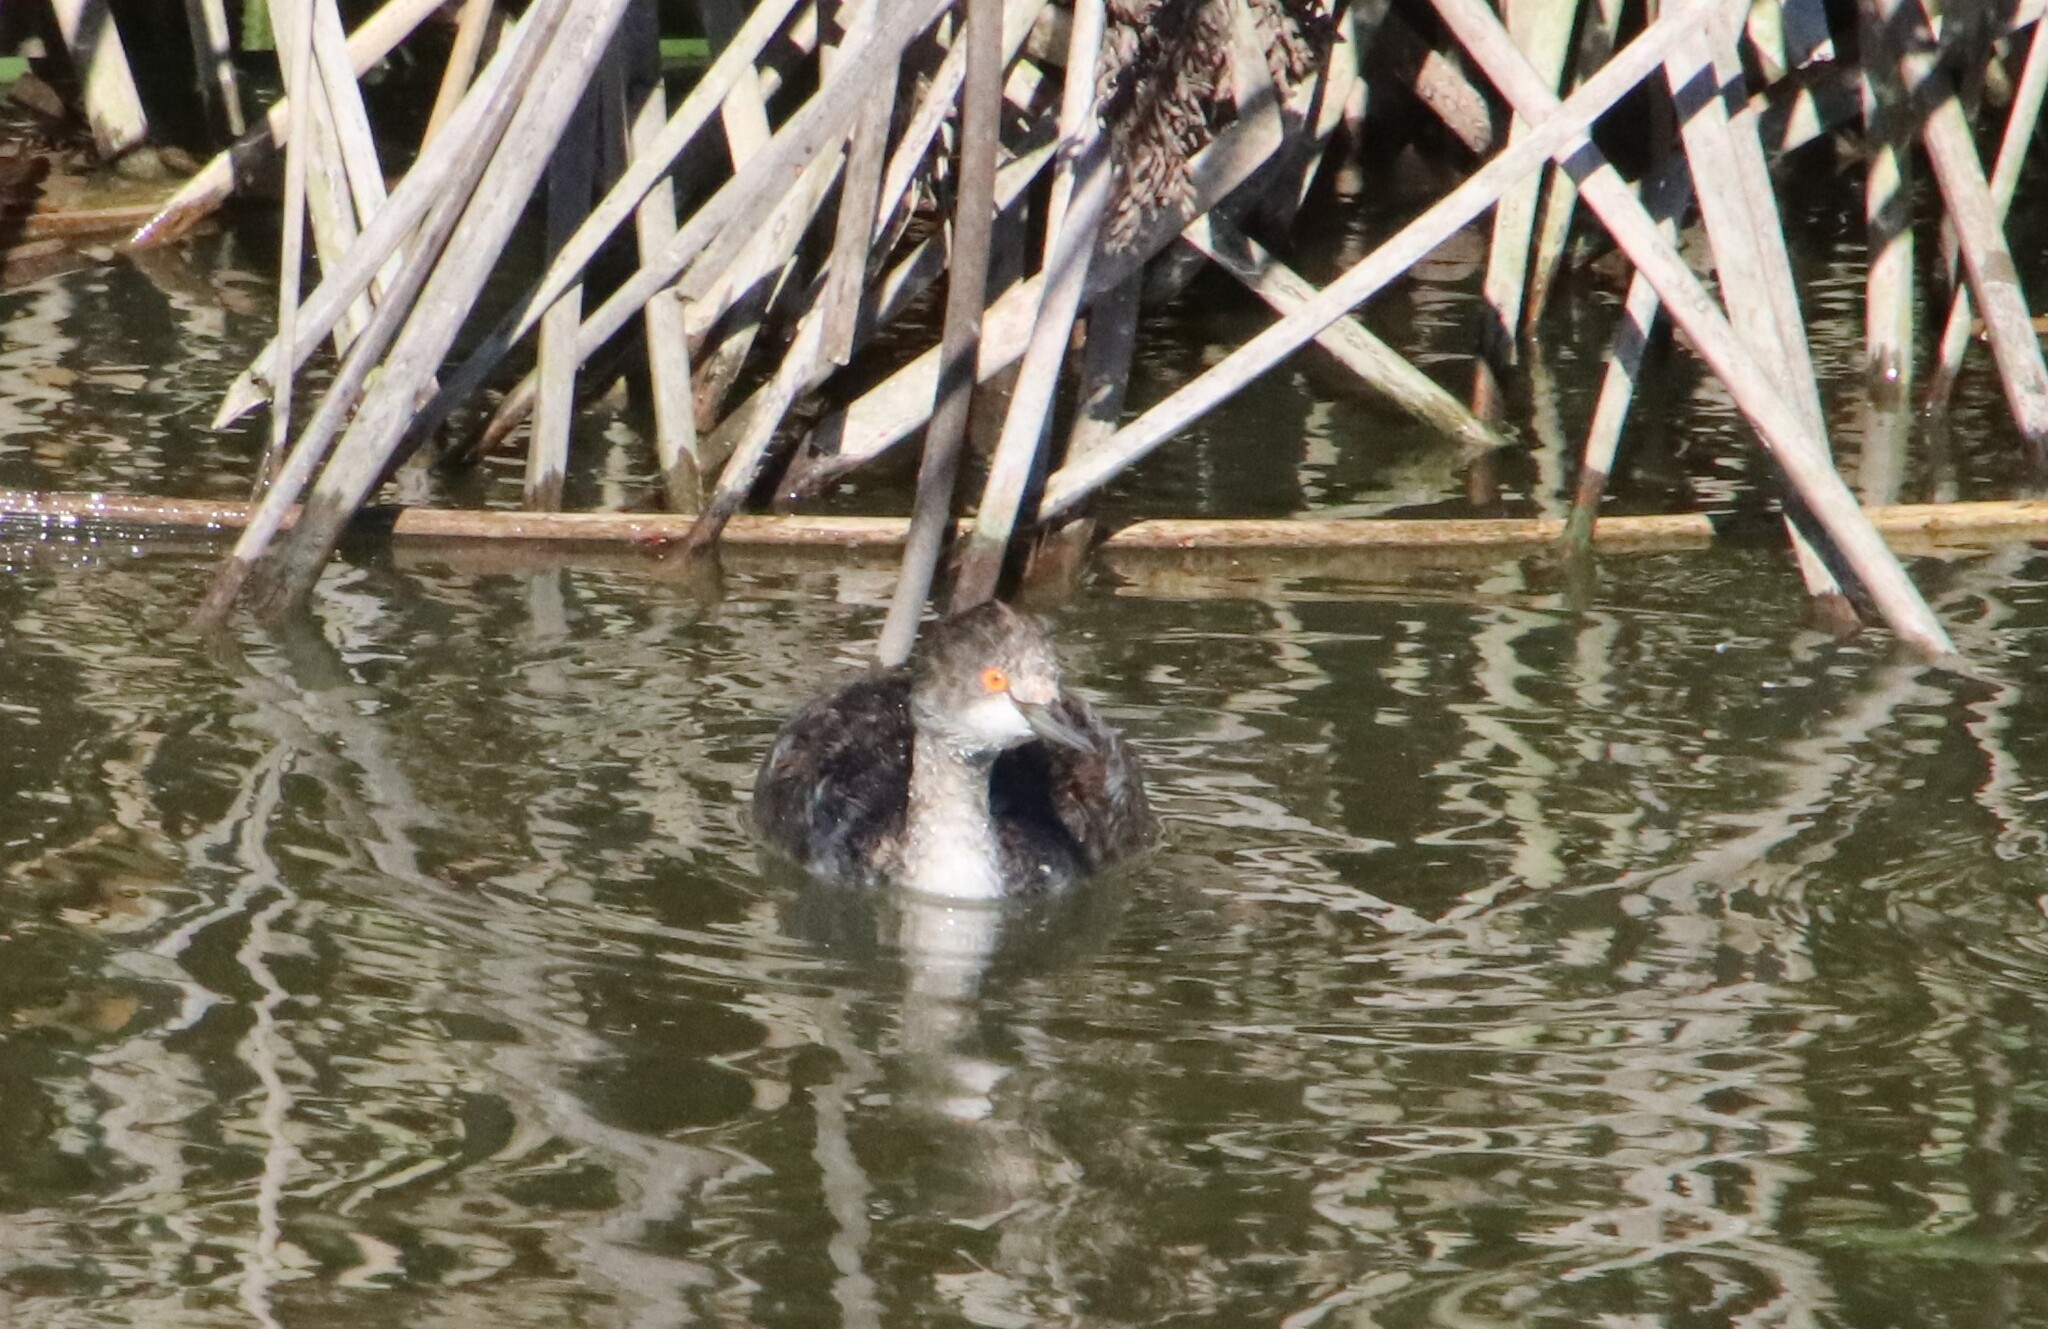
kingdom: Animalia
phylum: Chordata
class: Aves
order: Podicipediformes
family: Podicipedidae
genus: Podiceps
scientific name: Podiceps nigricollis
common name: Black-necked grebe
